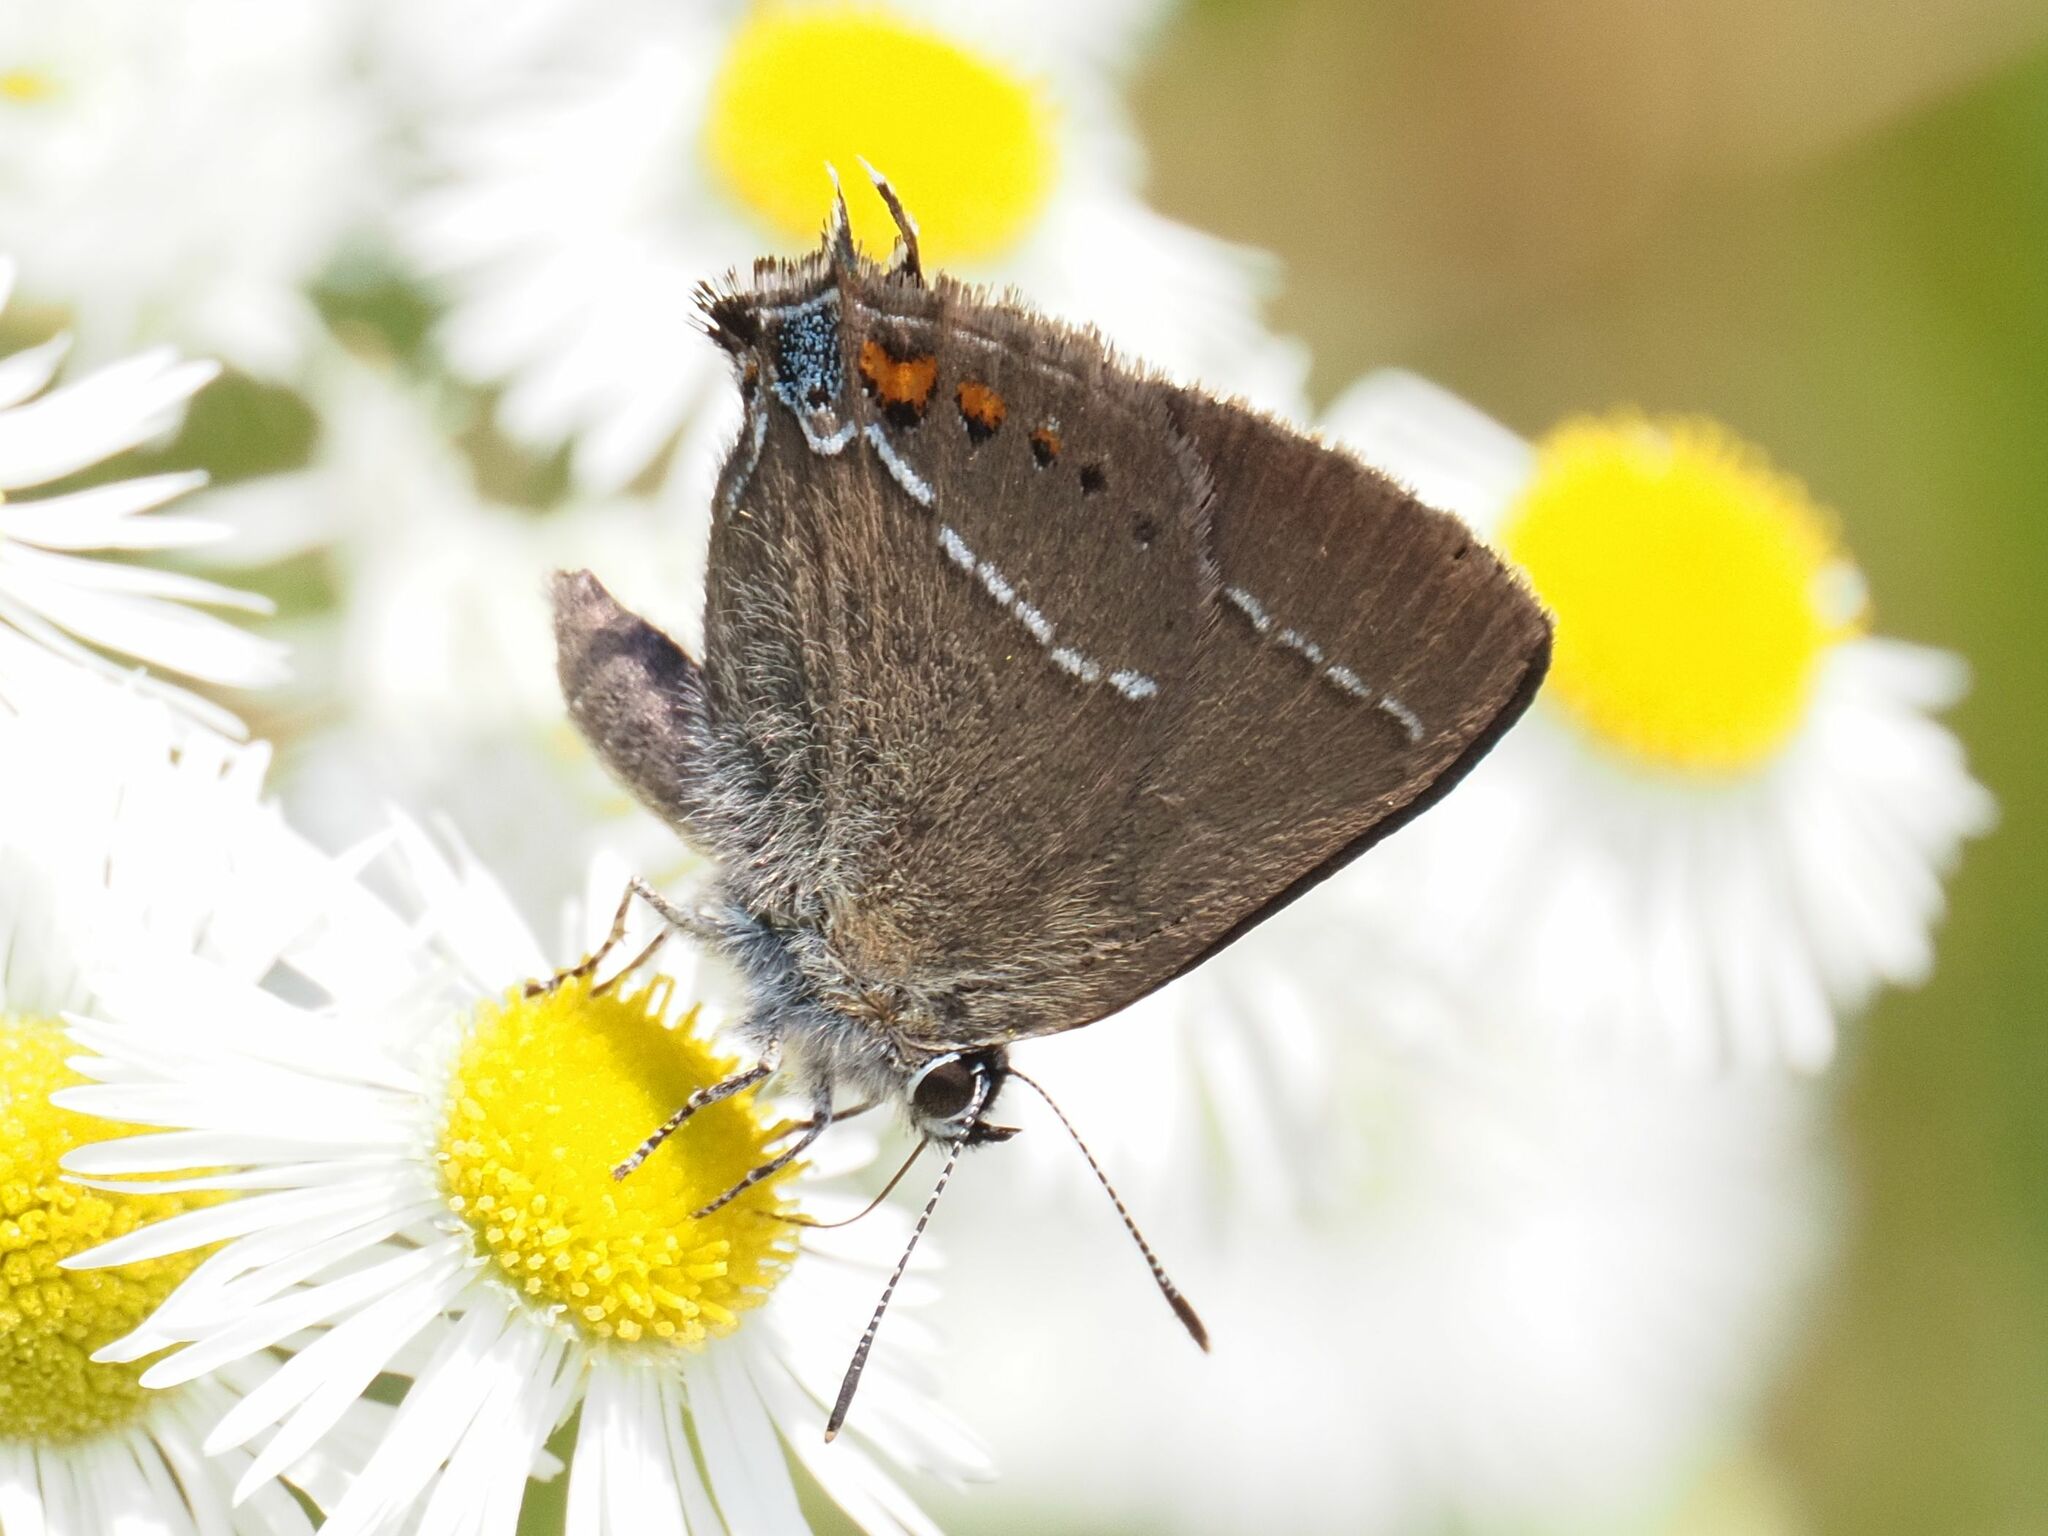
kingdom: Animalia
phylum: Arthropoda
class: Insecta
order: Lepidoptera
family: Lycaenidae
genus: Tuttiola
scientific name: Tuttiola spini
